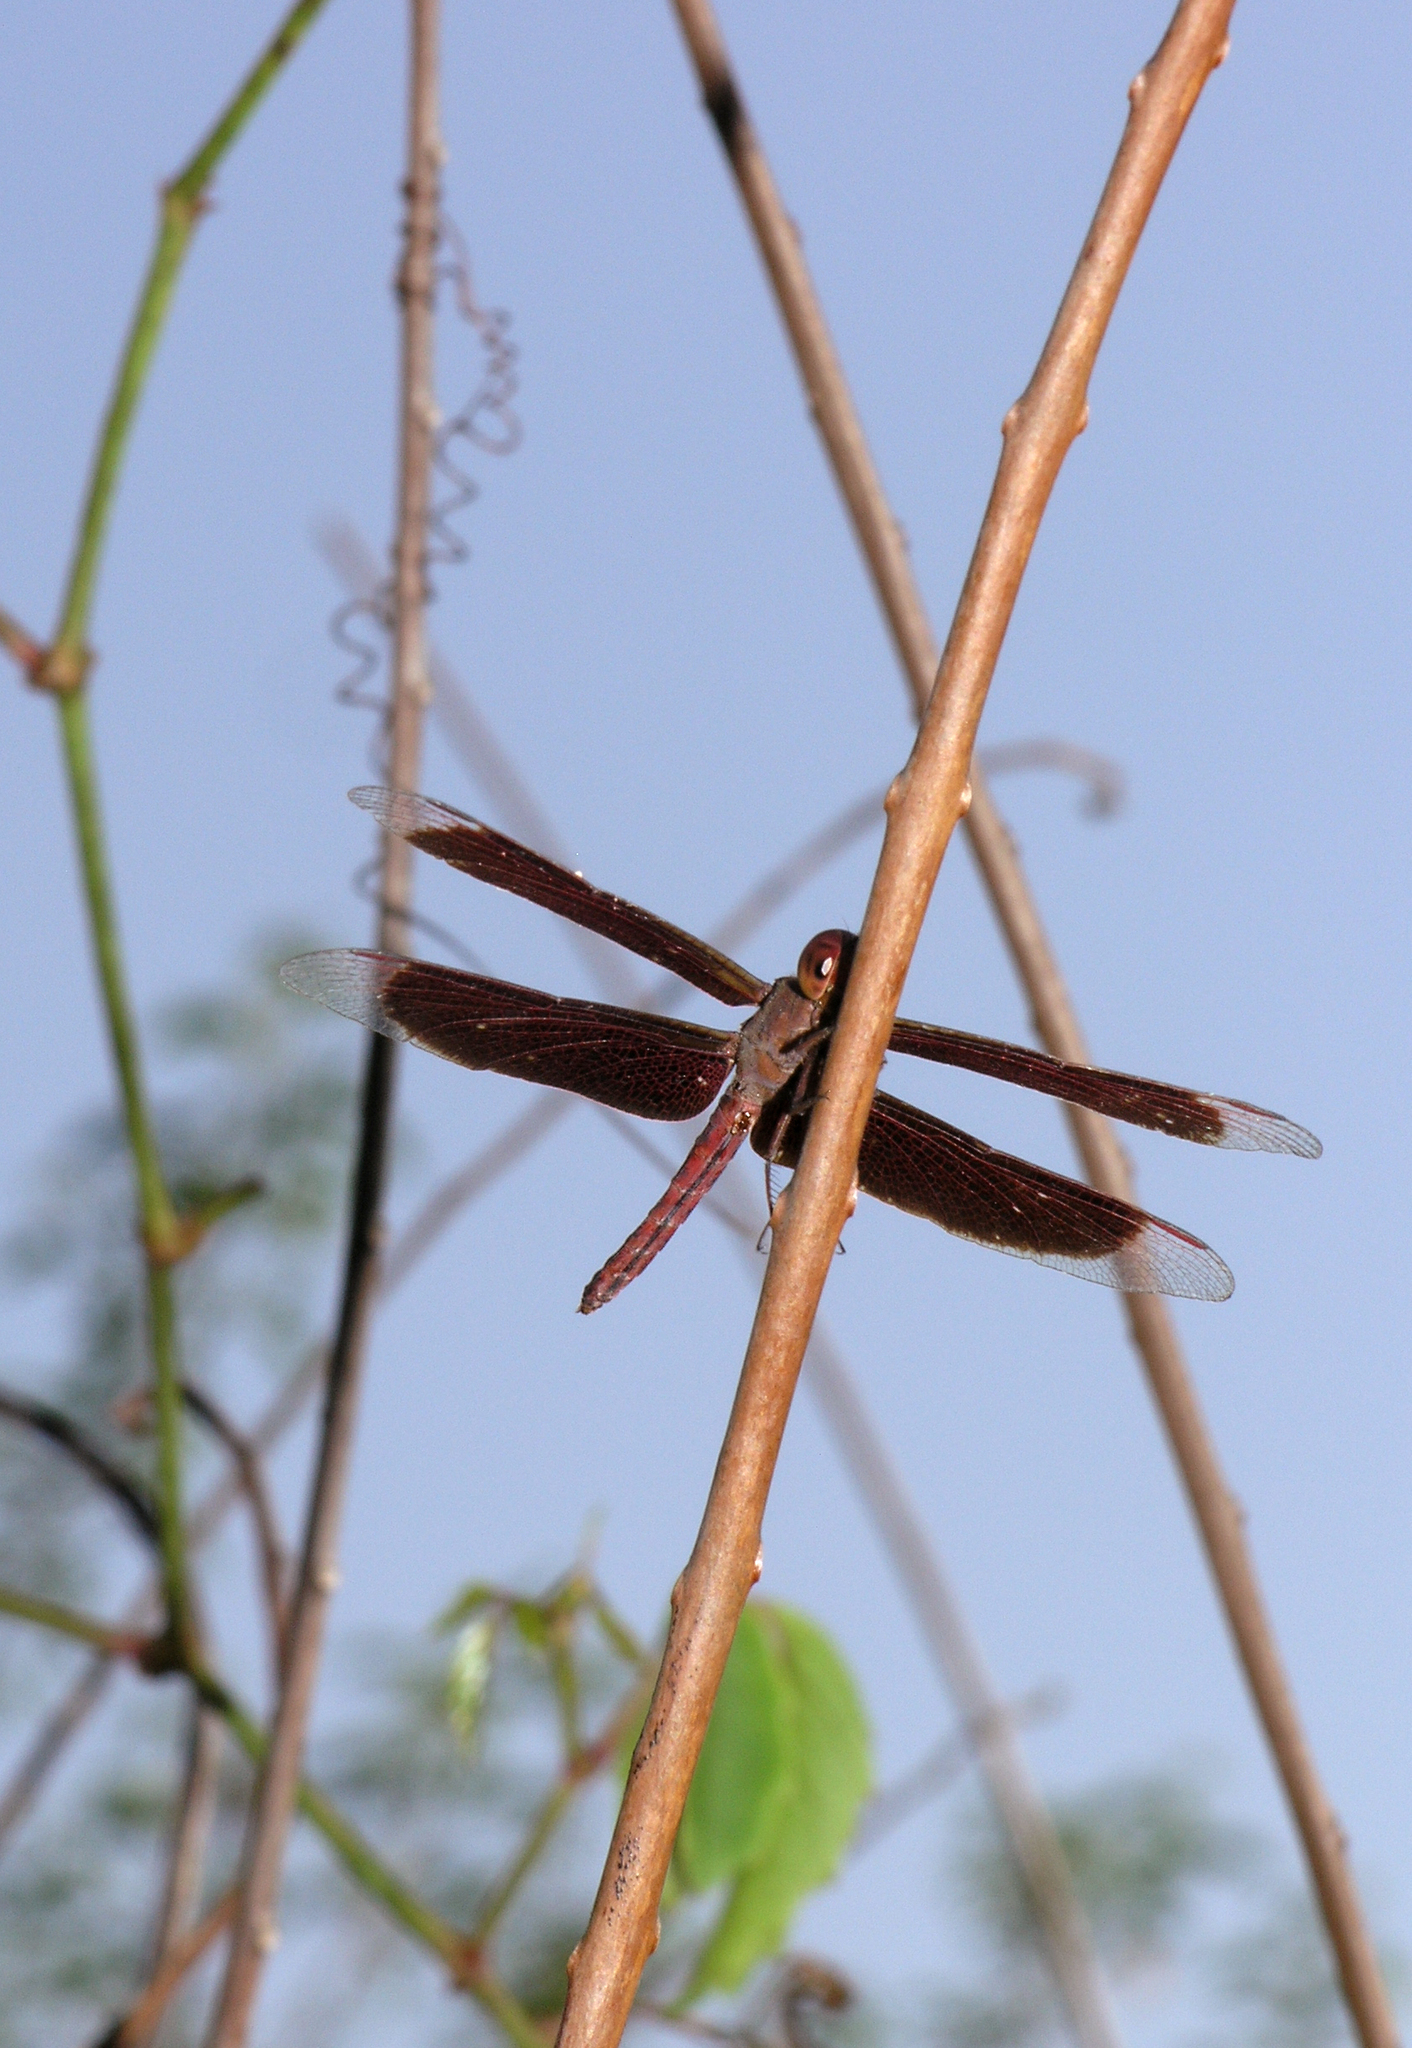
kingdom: Animalia
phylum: Arthropoda
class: Insecta
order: Odonata
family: Libellulidae
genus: Neurothemis
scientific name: Neurothemis fluctuans
